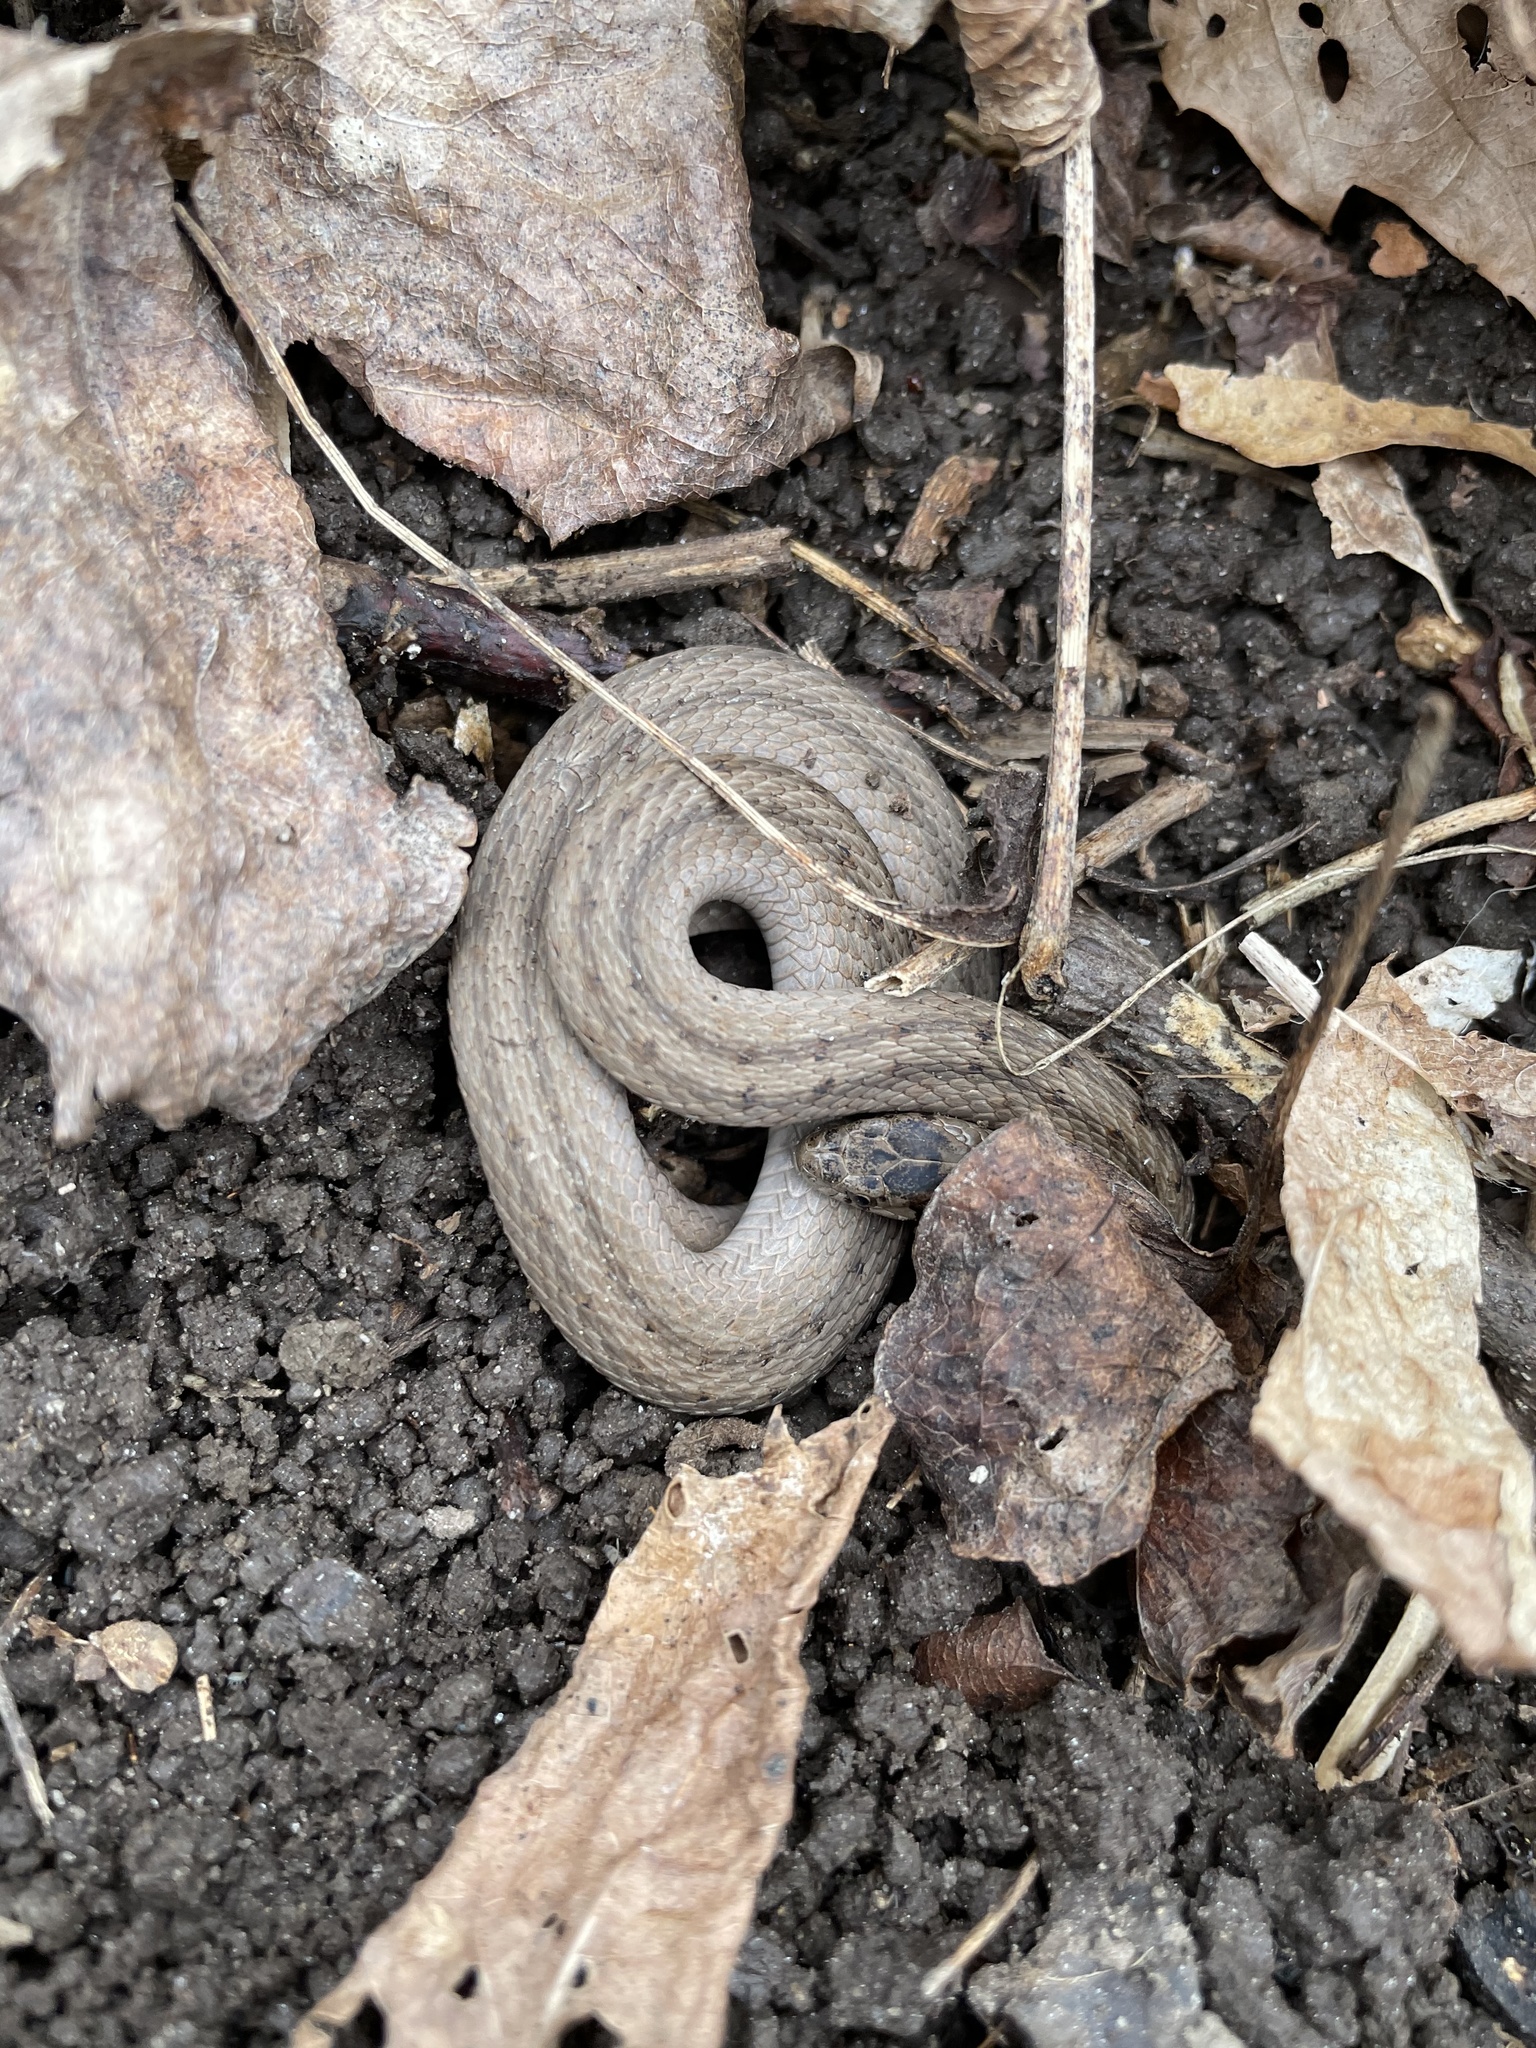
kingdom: Animalia
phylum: Chordata
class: Squamata
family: Colubridae
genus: Storeria
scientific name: Storeria dekayi
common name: (dekay’s) brown snake
